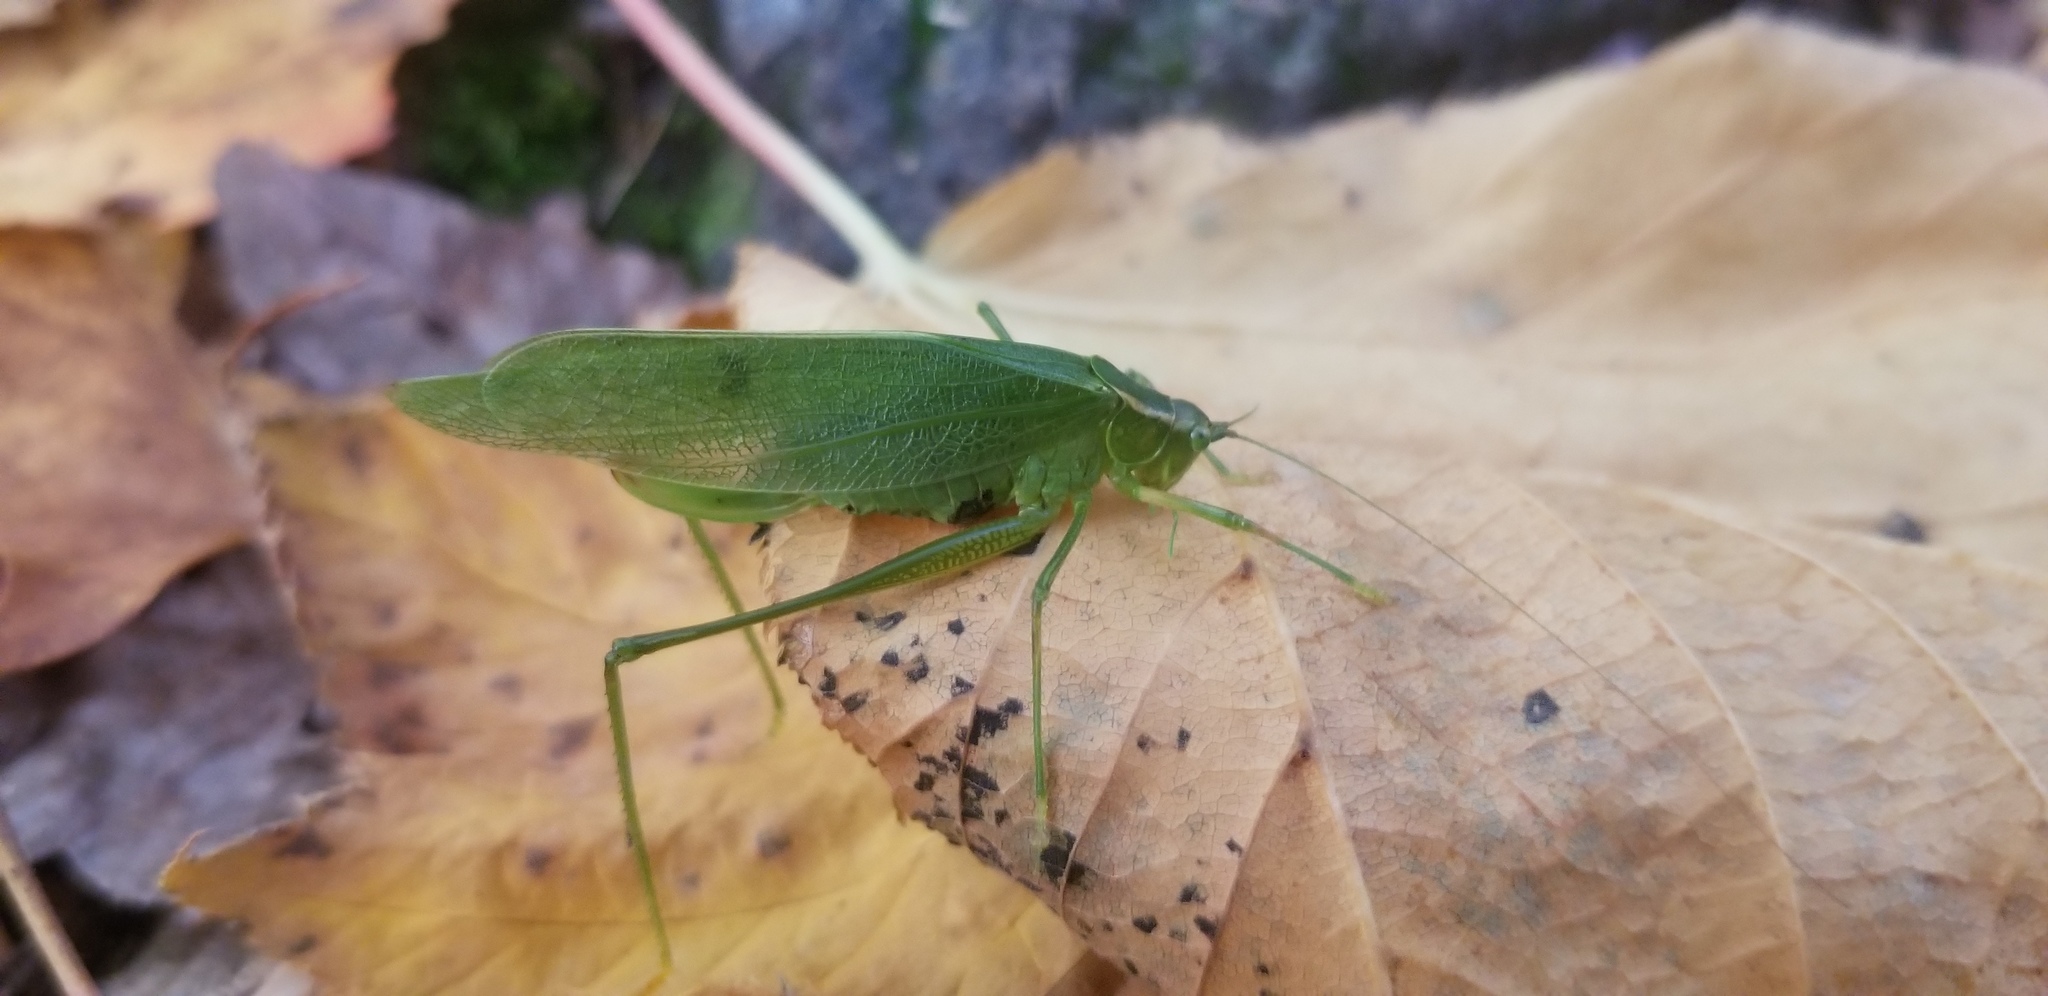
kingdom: Animalia
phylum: Arthropoda
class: Insecta
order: Orthoptera
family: Tettigoniidae
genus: Scudderia
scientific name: Scudderia septentrionalis
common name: Northern bush-katydid
